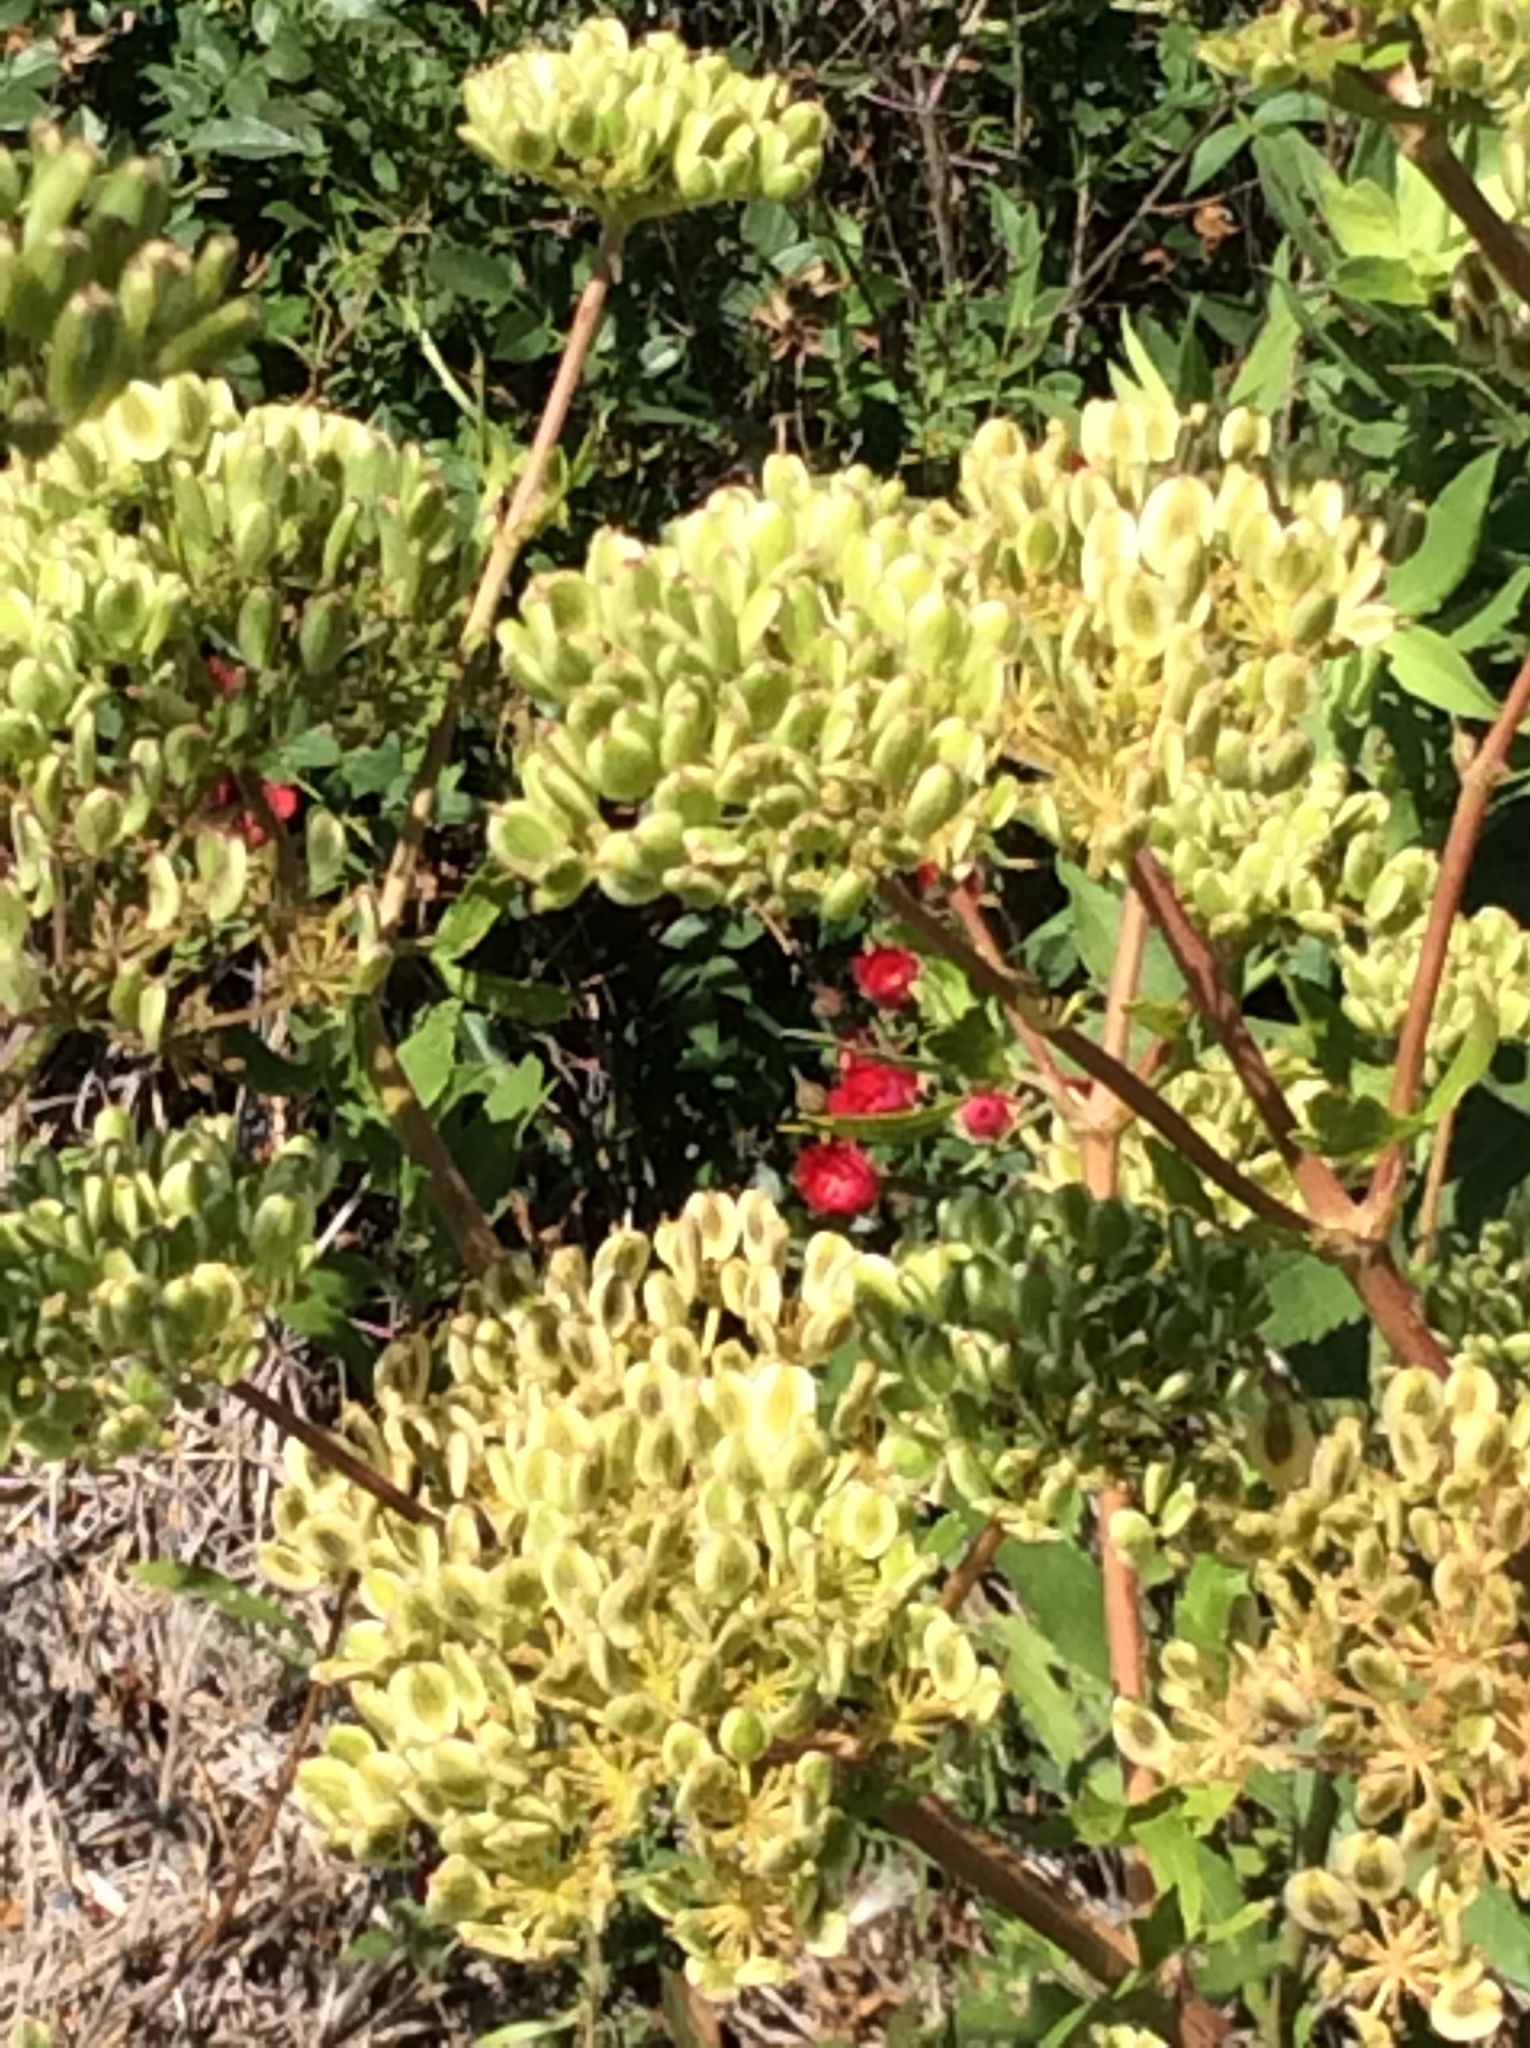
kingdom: Plantae
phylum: Tracheophyta
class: Magnoliopsida
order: Apiales
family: Apiaceae
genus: Polytaenia
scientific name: Polytaenia texana
